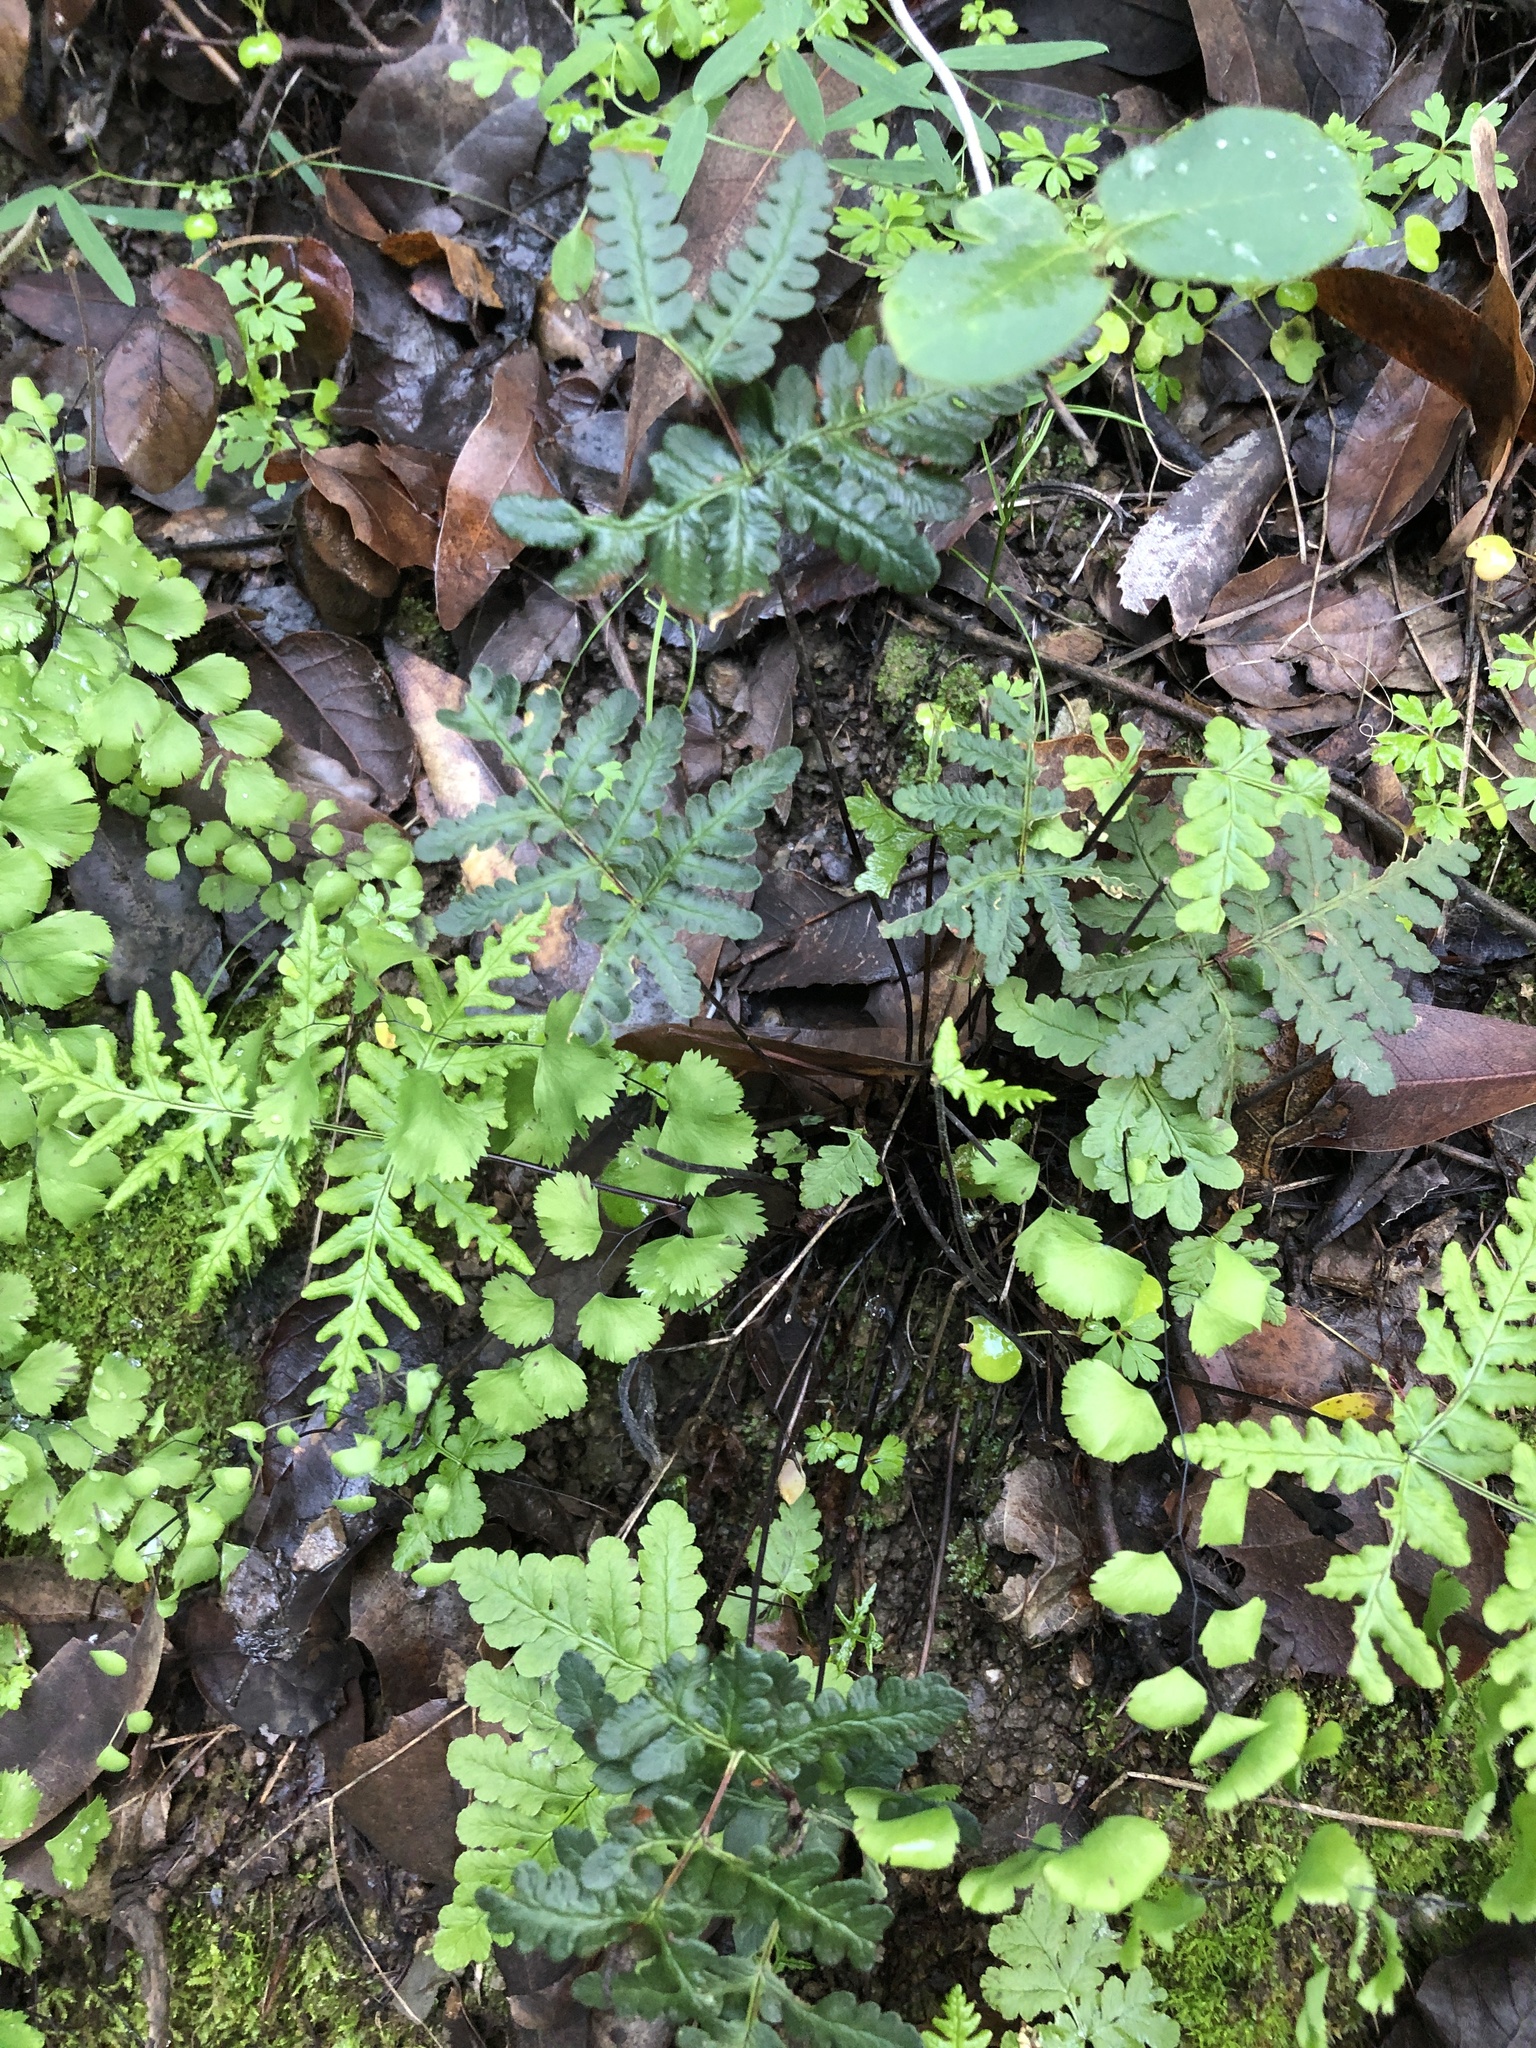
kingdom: Plantae
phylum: Tracheophyta
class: Polypodiopsida
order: Polypodiales
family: Pteridaceae
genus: Pentagramma
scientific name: Pentagramma triangularis
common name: Gold fern
